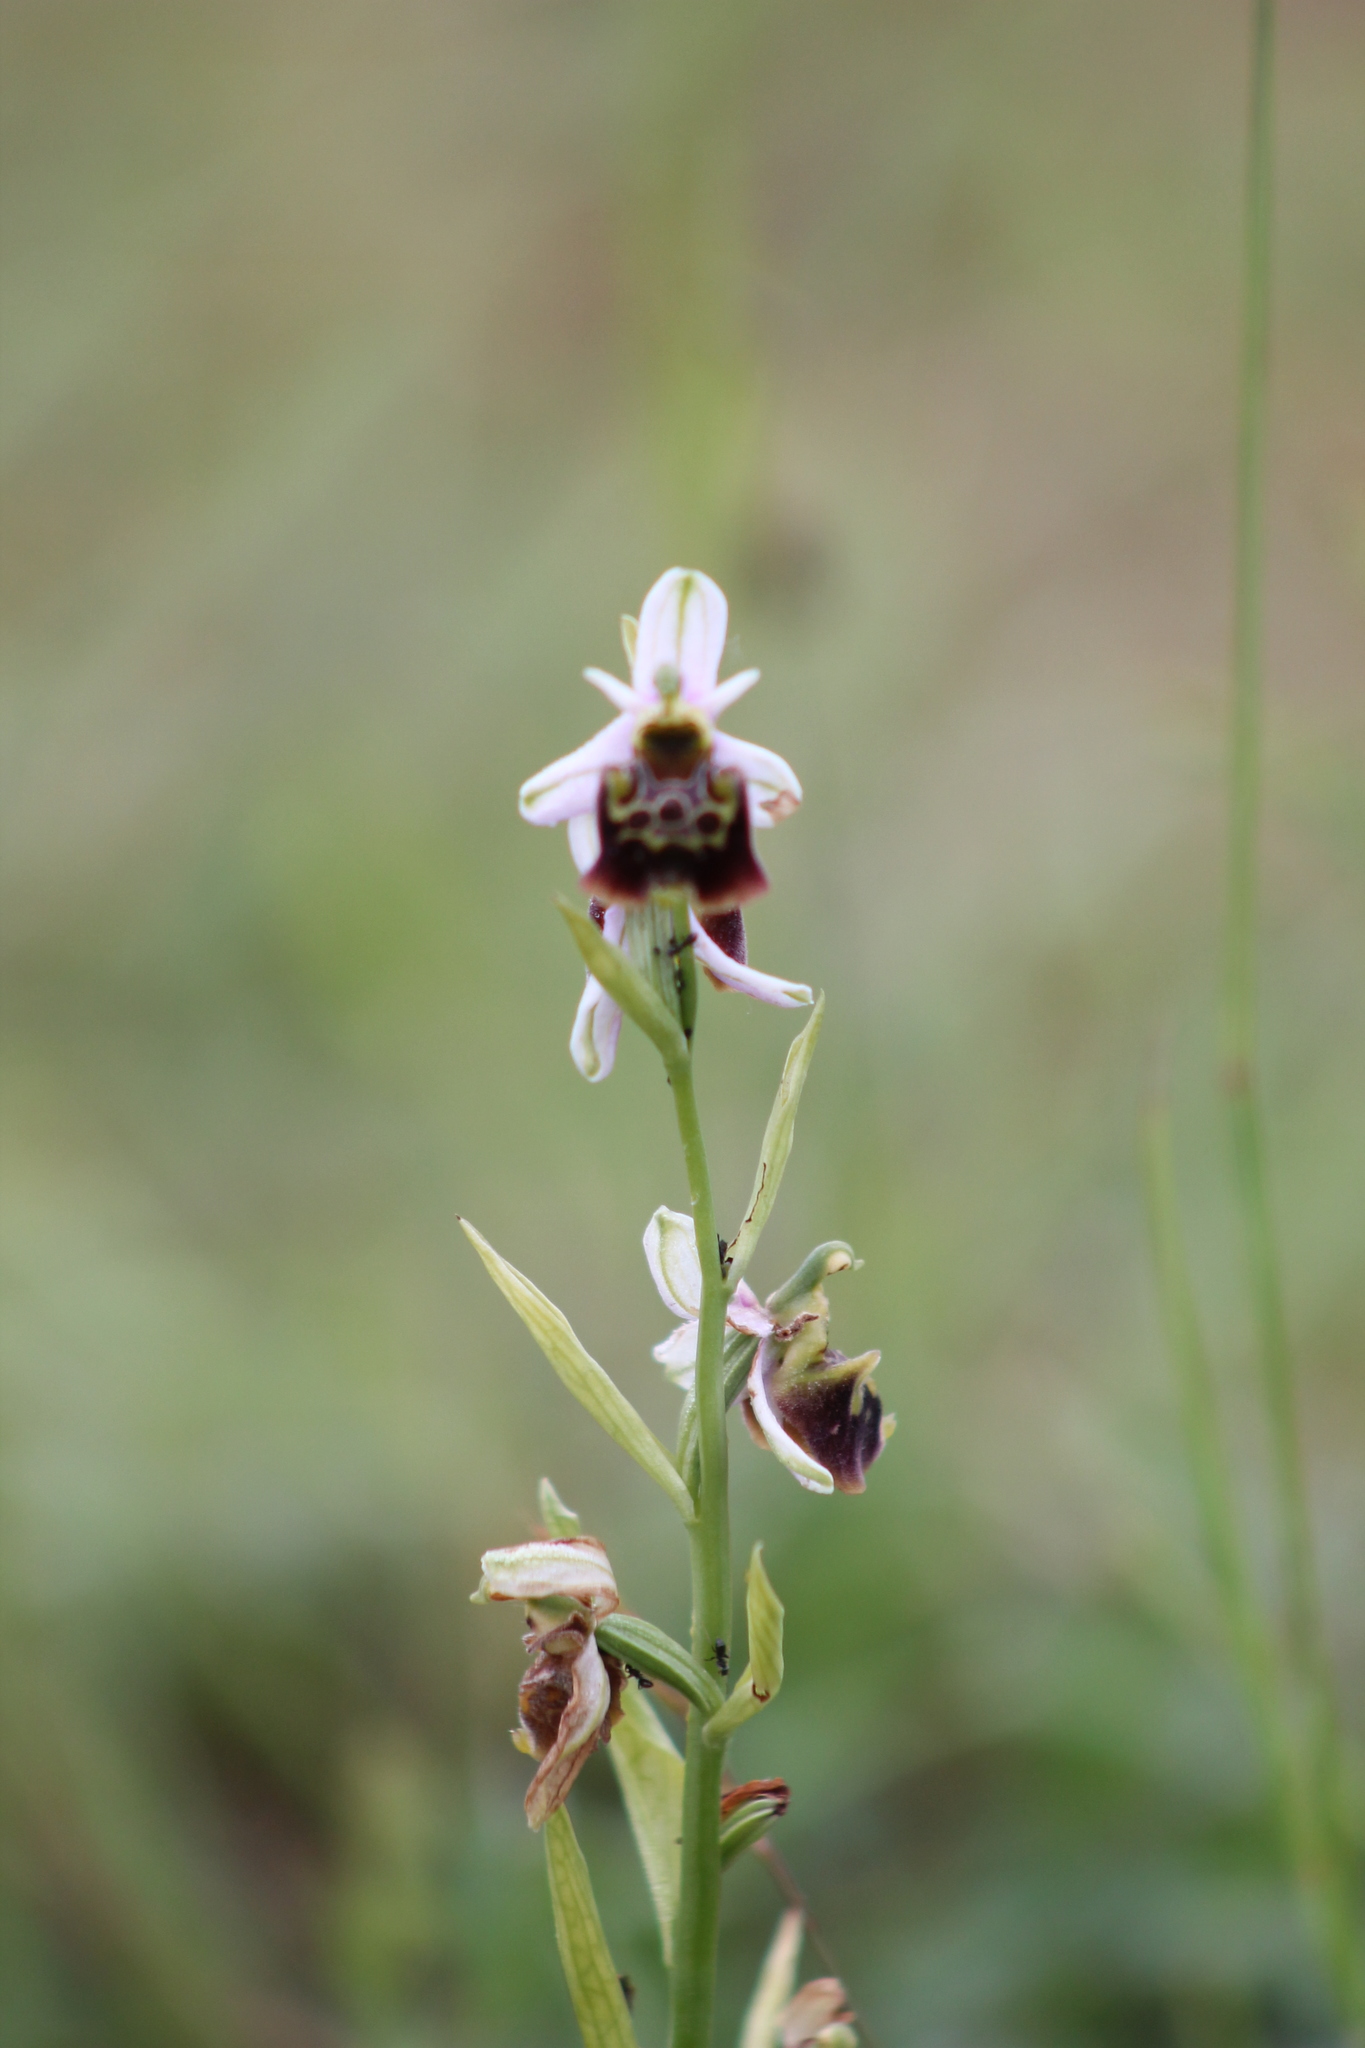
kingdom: Plantae
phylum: Tracheophyta
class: Liliopsida
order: Asparagales
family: Orchidaceae
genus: Ophrys
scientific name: Ophrys holosericea
